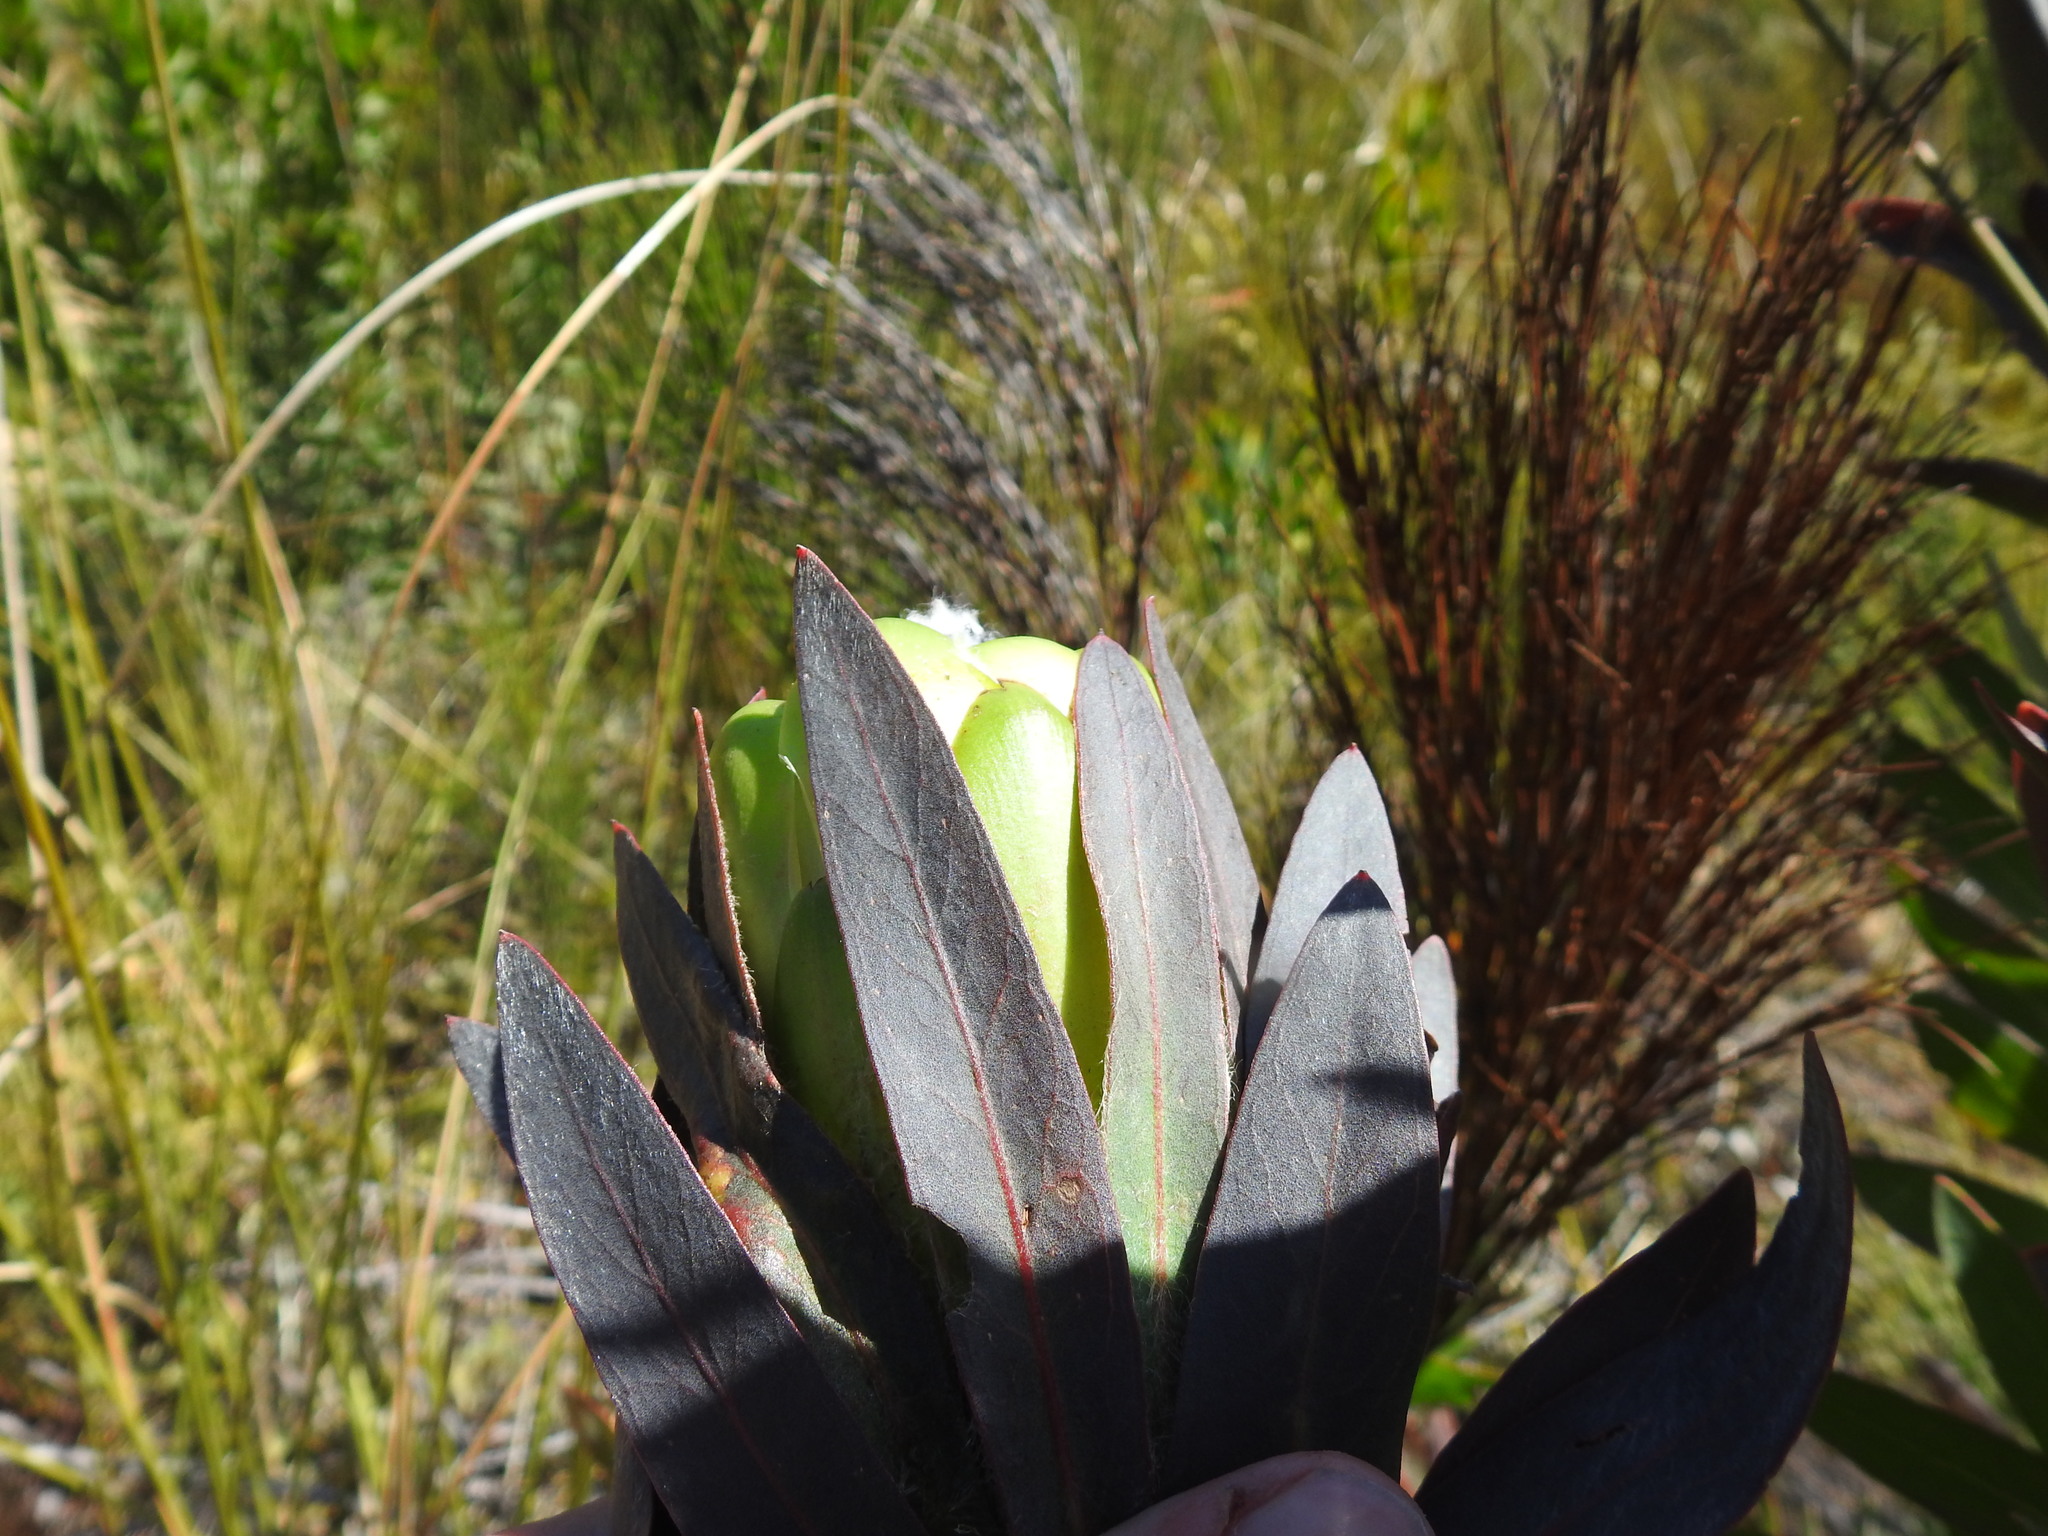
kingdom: Plantae
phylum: Tracheophyta
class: Magnoliopsida
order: Proteales
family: Proteaceae
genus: Protea
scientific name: Protea coronata
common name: Green sugarbush
